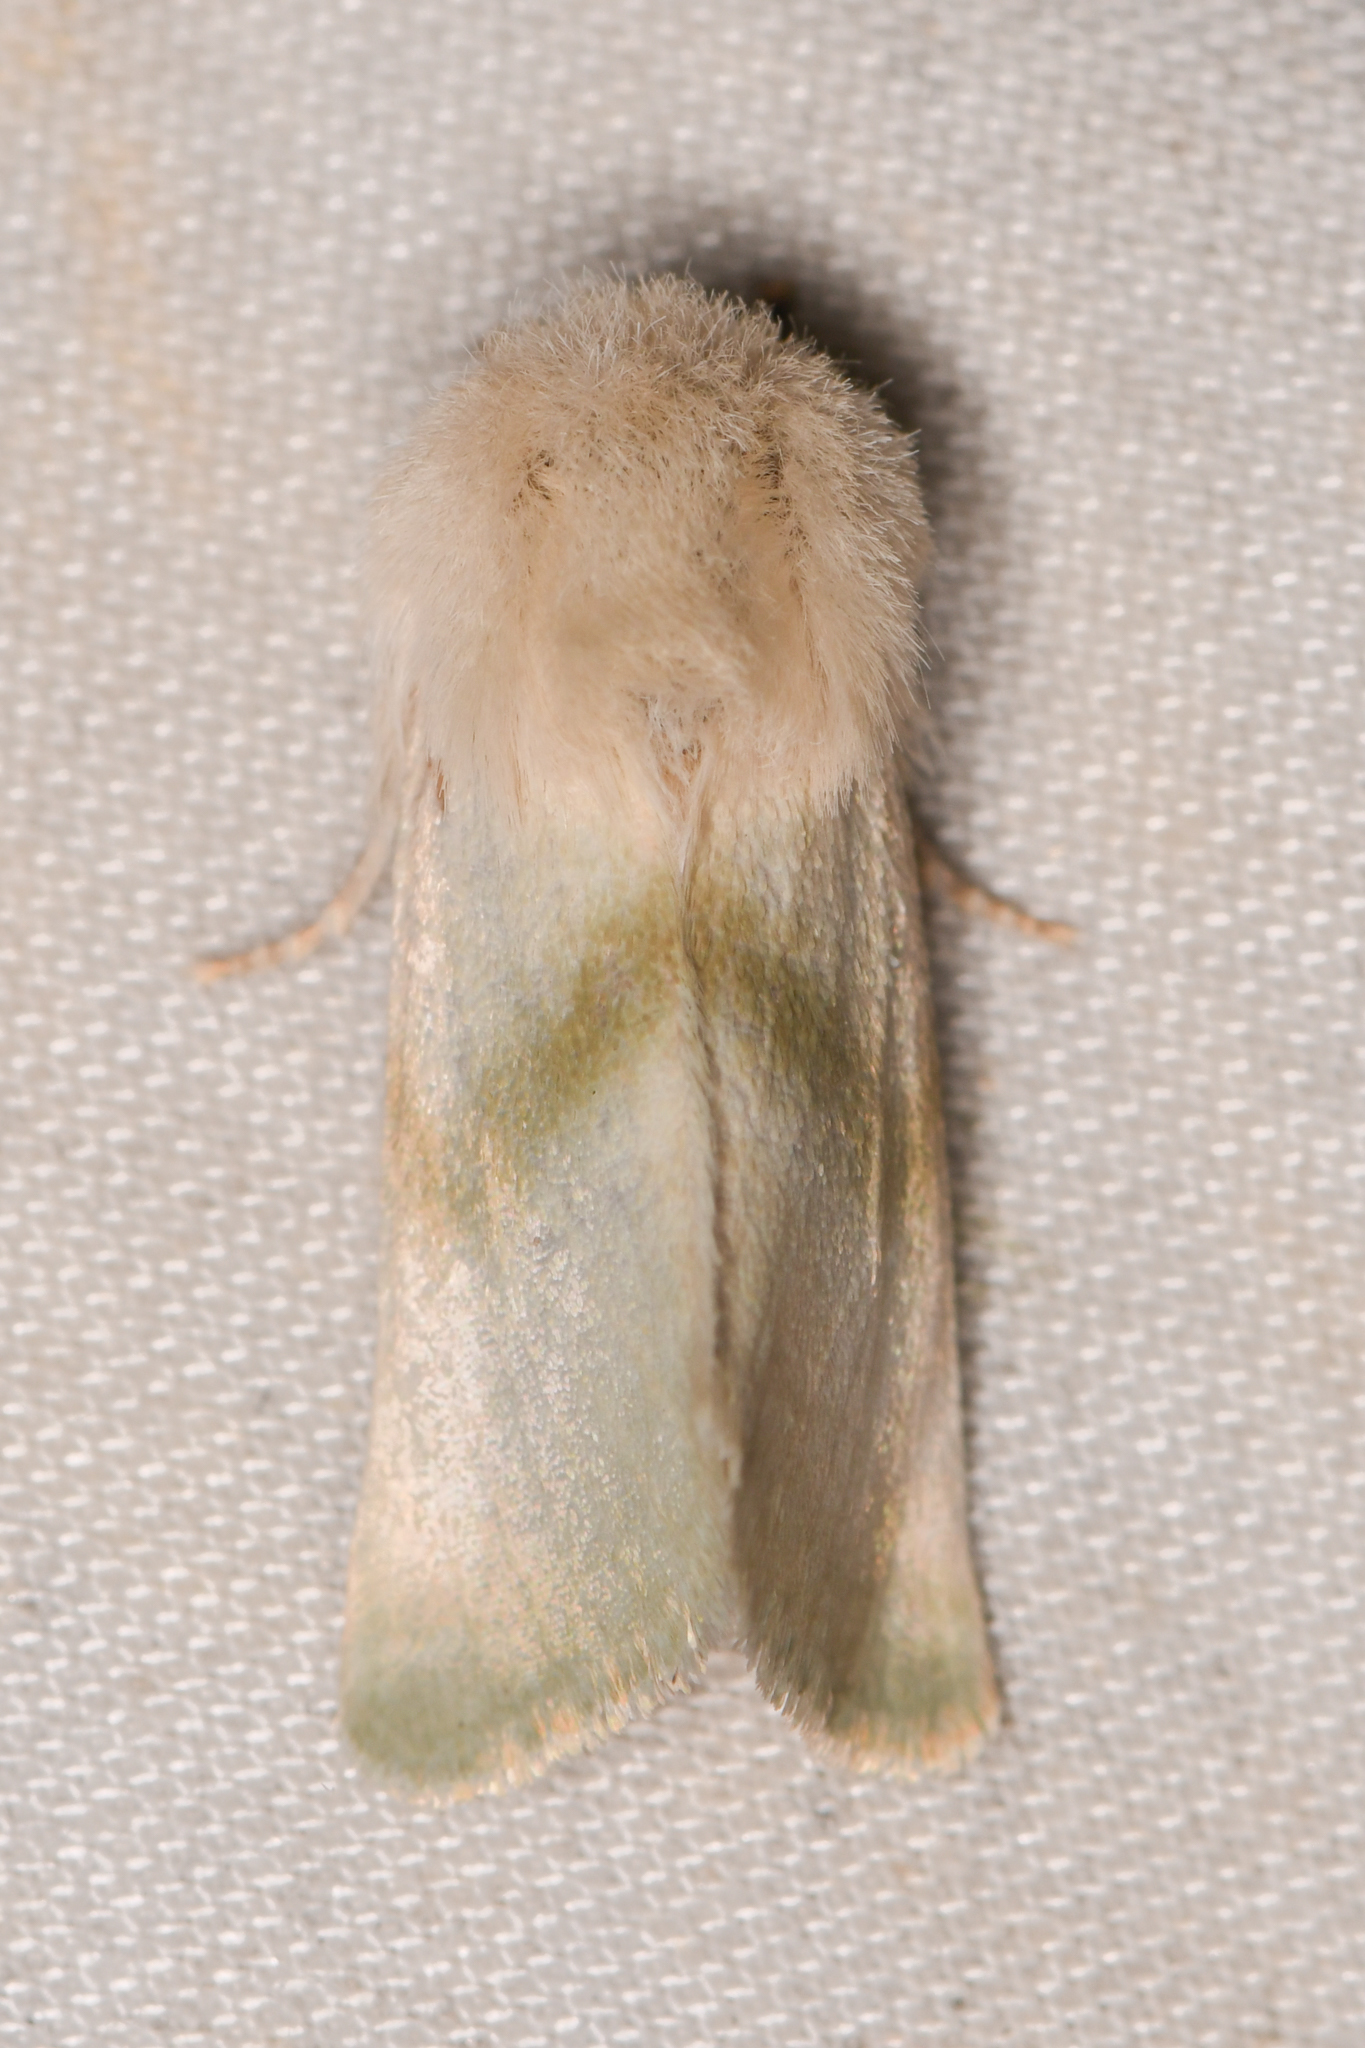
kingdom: Animalia
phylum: Arthropoda
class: Insecta
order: Lepidoptera
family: Noctuidae
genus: Nocloa
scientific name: Nocloa pallens
